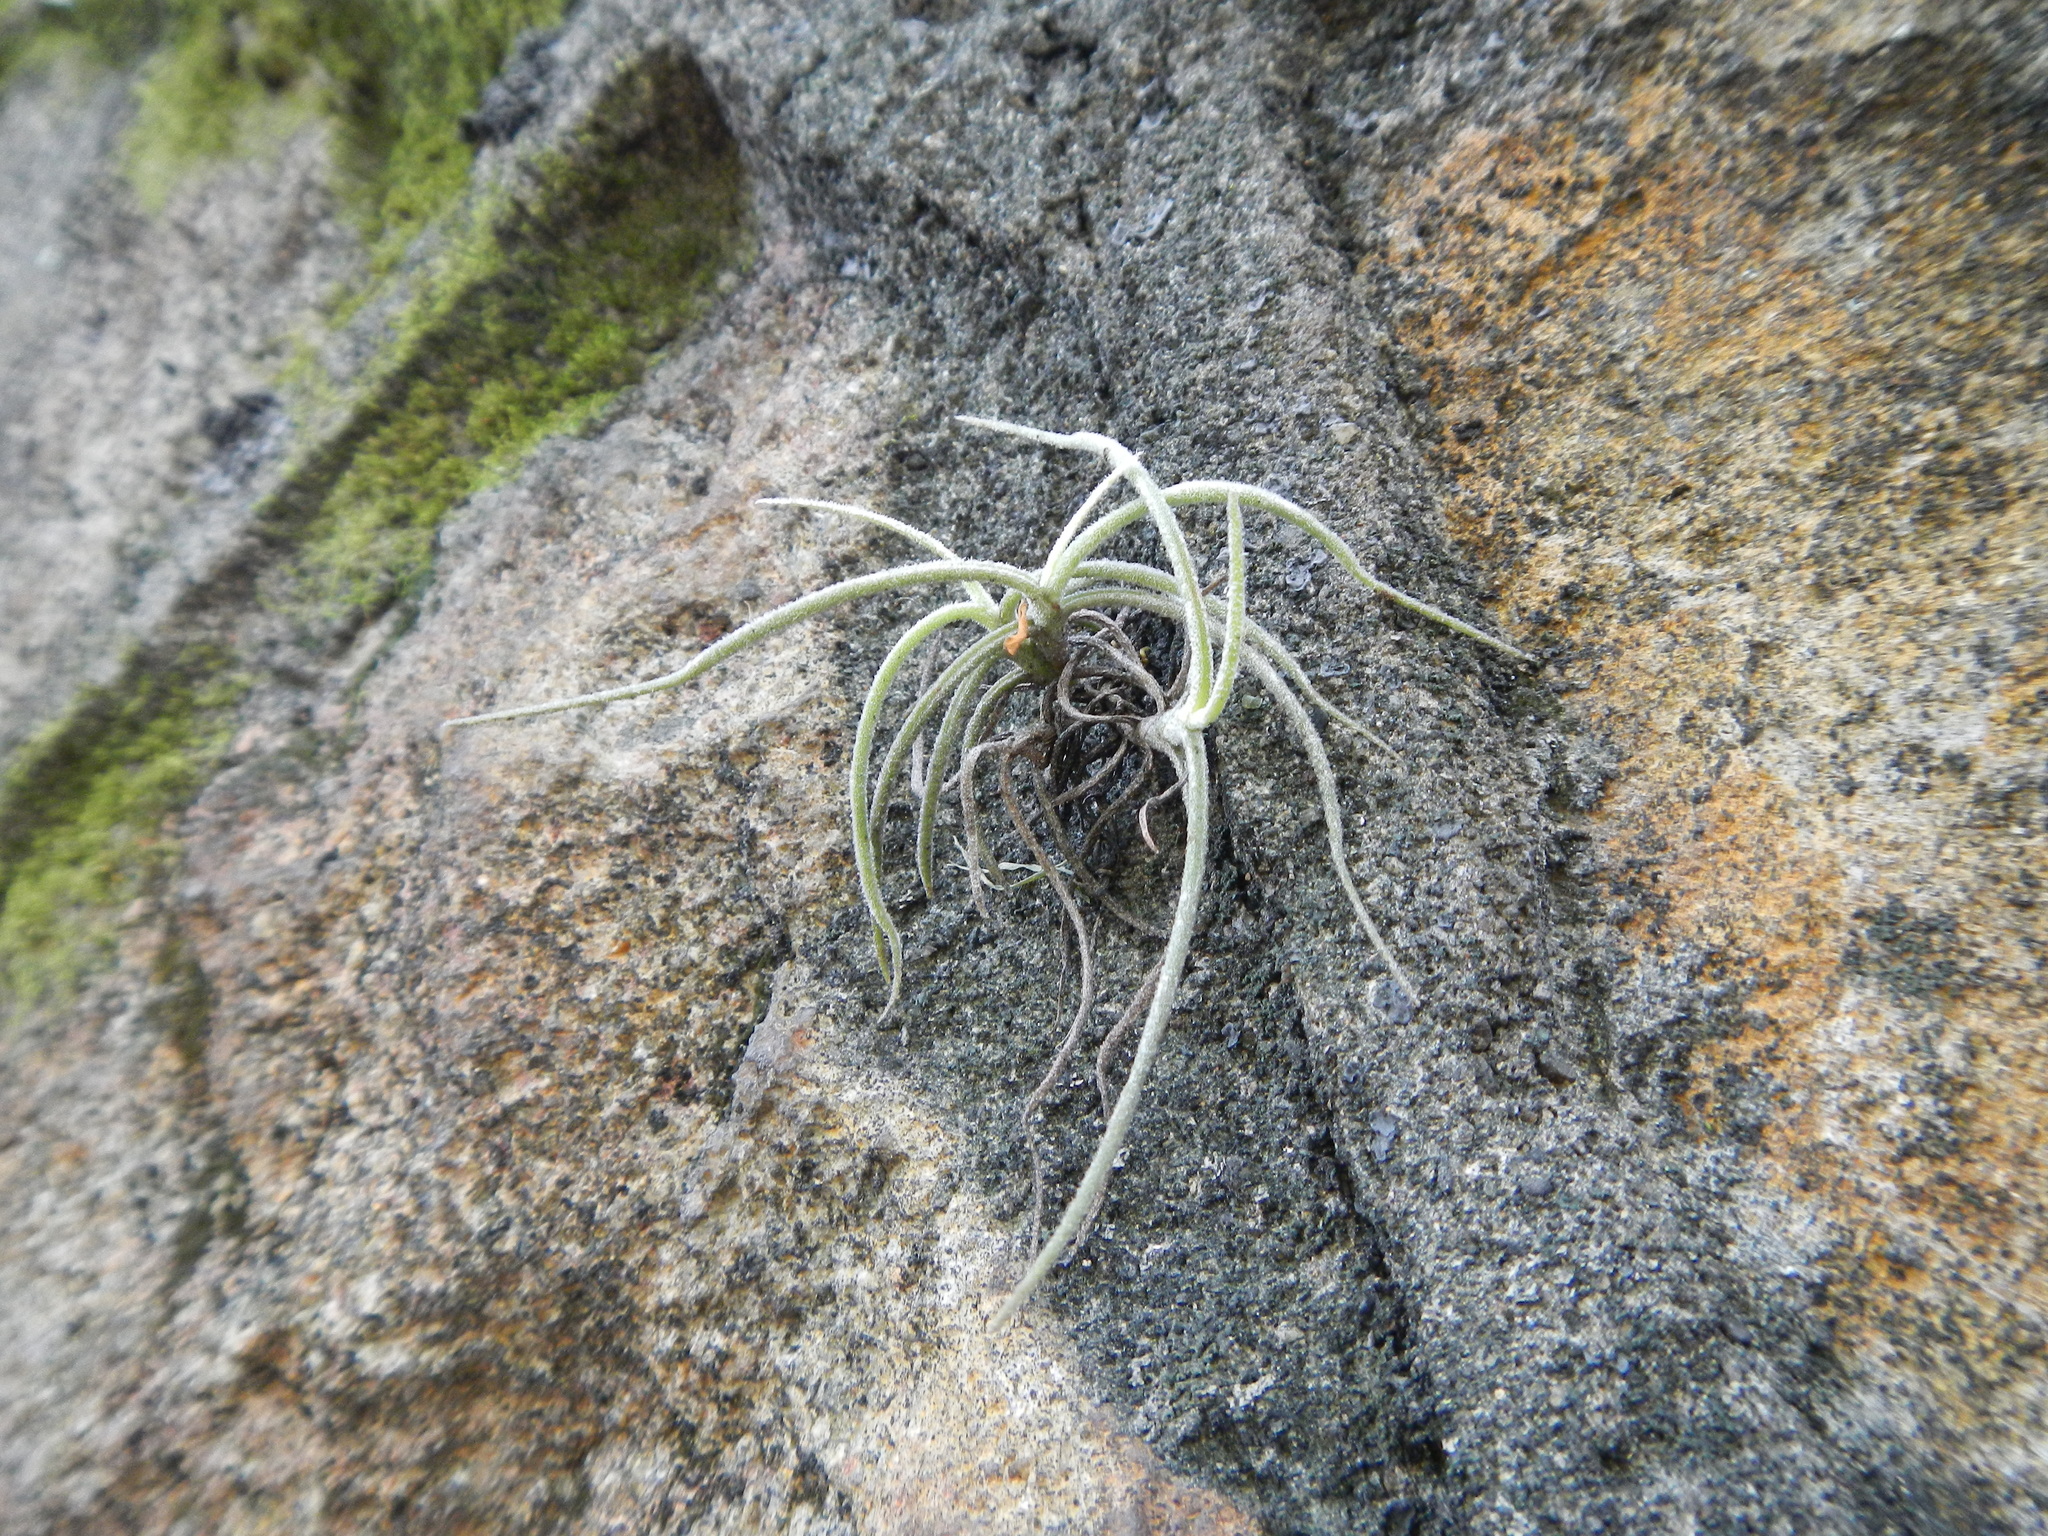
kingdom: Plantae
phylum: Tracheophyta
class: Liliopsida
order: Poales
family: Bromeliaceae
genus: Tillandsia
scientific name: Tillandsia recurvata
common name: Small ballmoss
